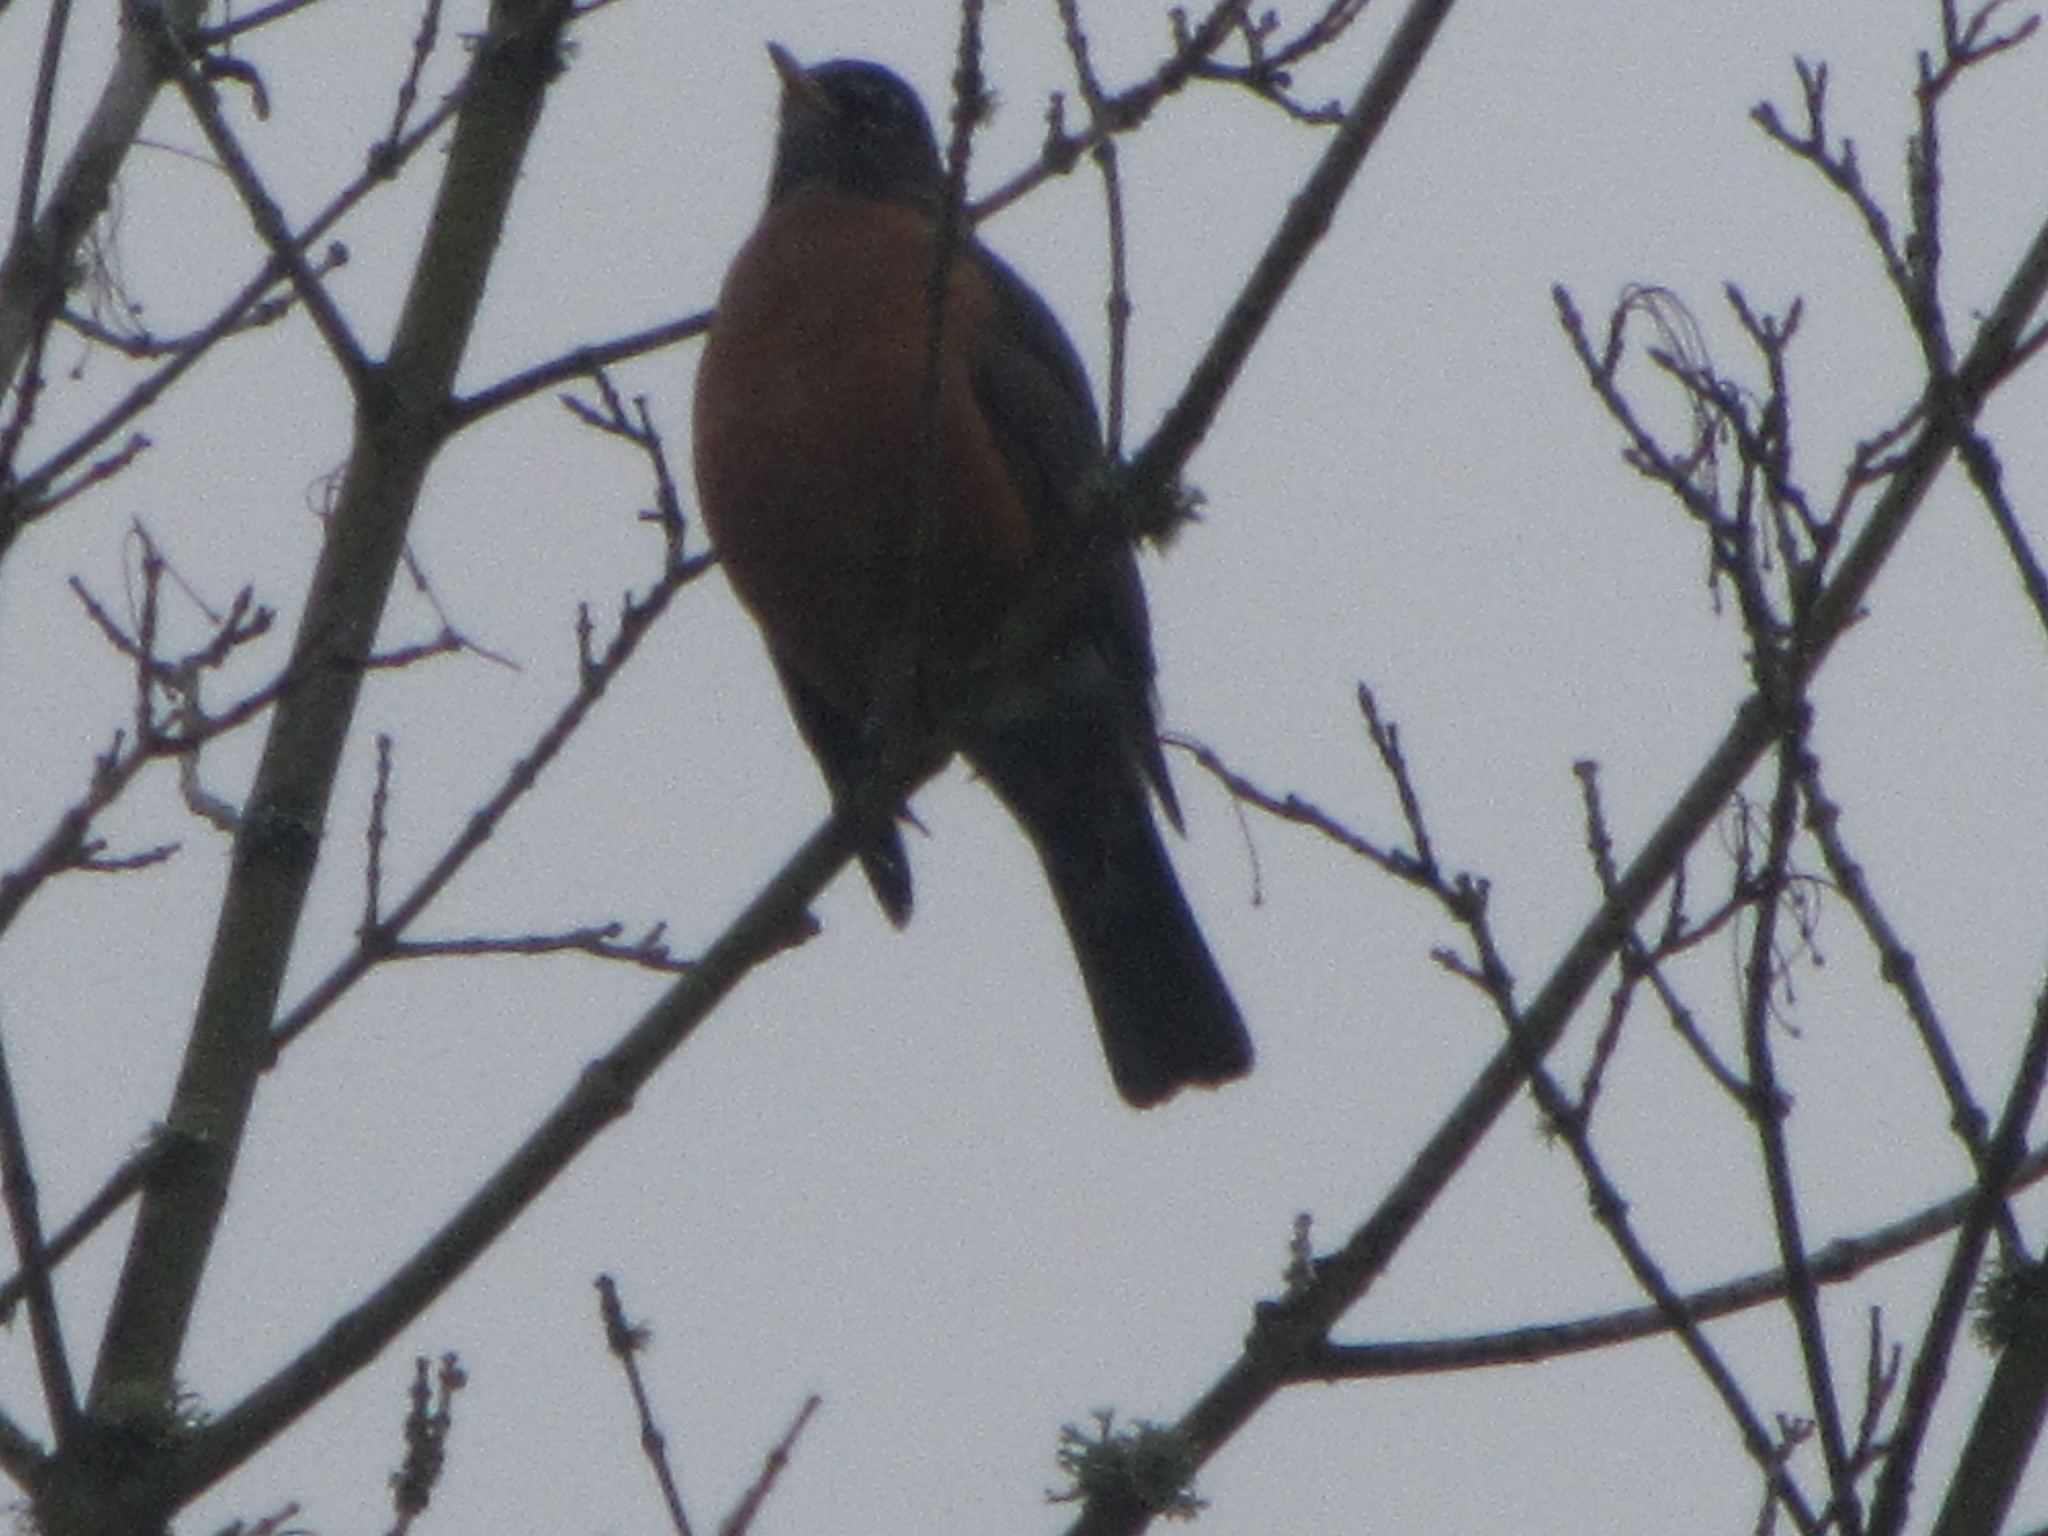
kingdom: Animalia
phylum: Chordata
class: Aves
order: Passeriformes
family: Turdidae
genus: Turdus
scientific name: Turdus migratorius
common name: American robin
